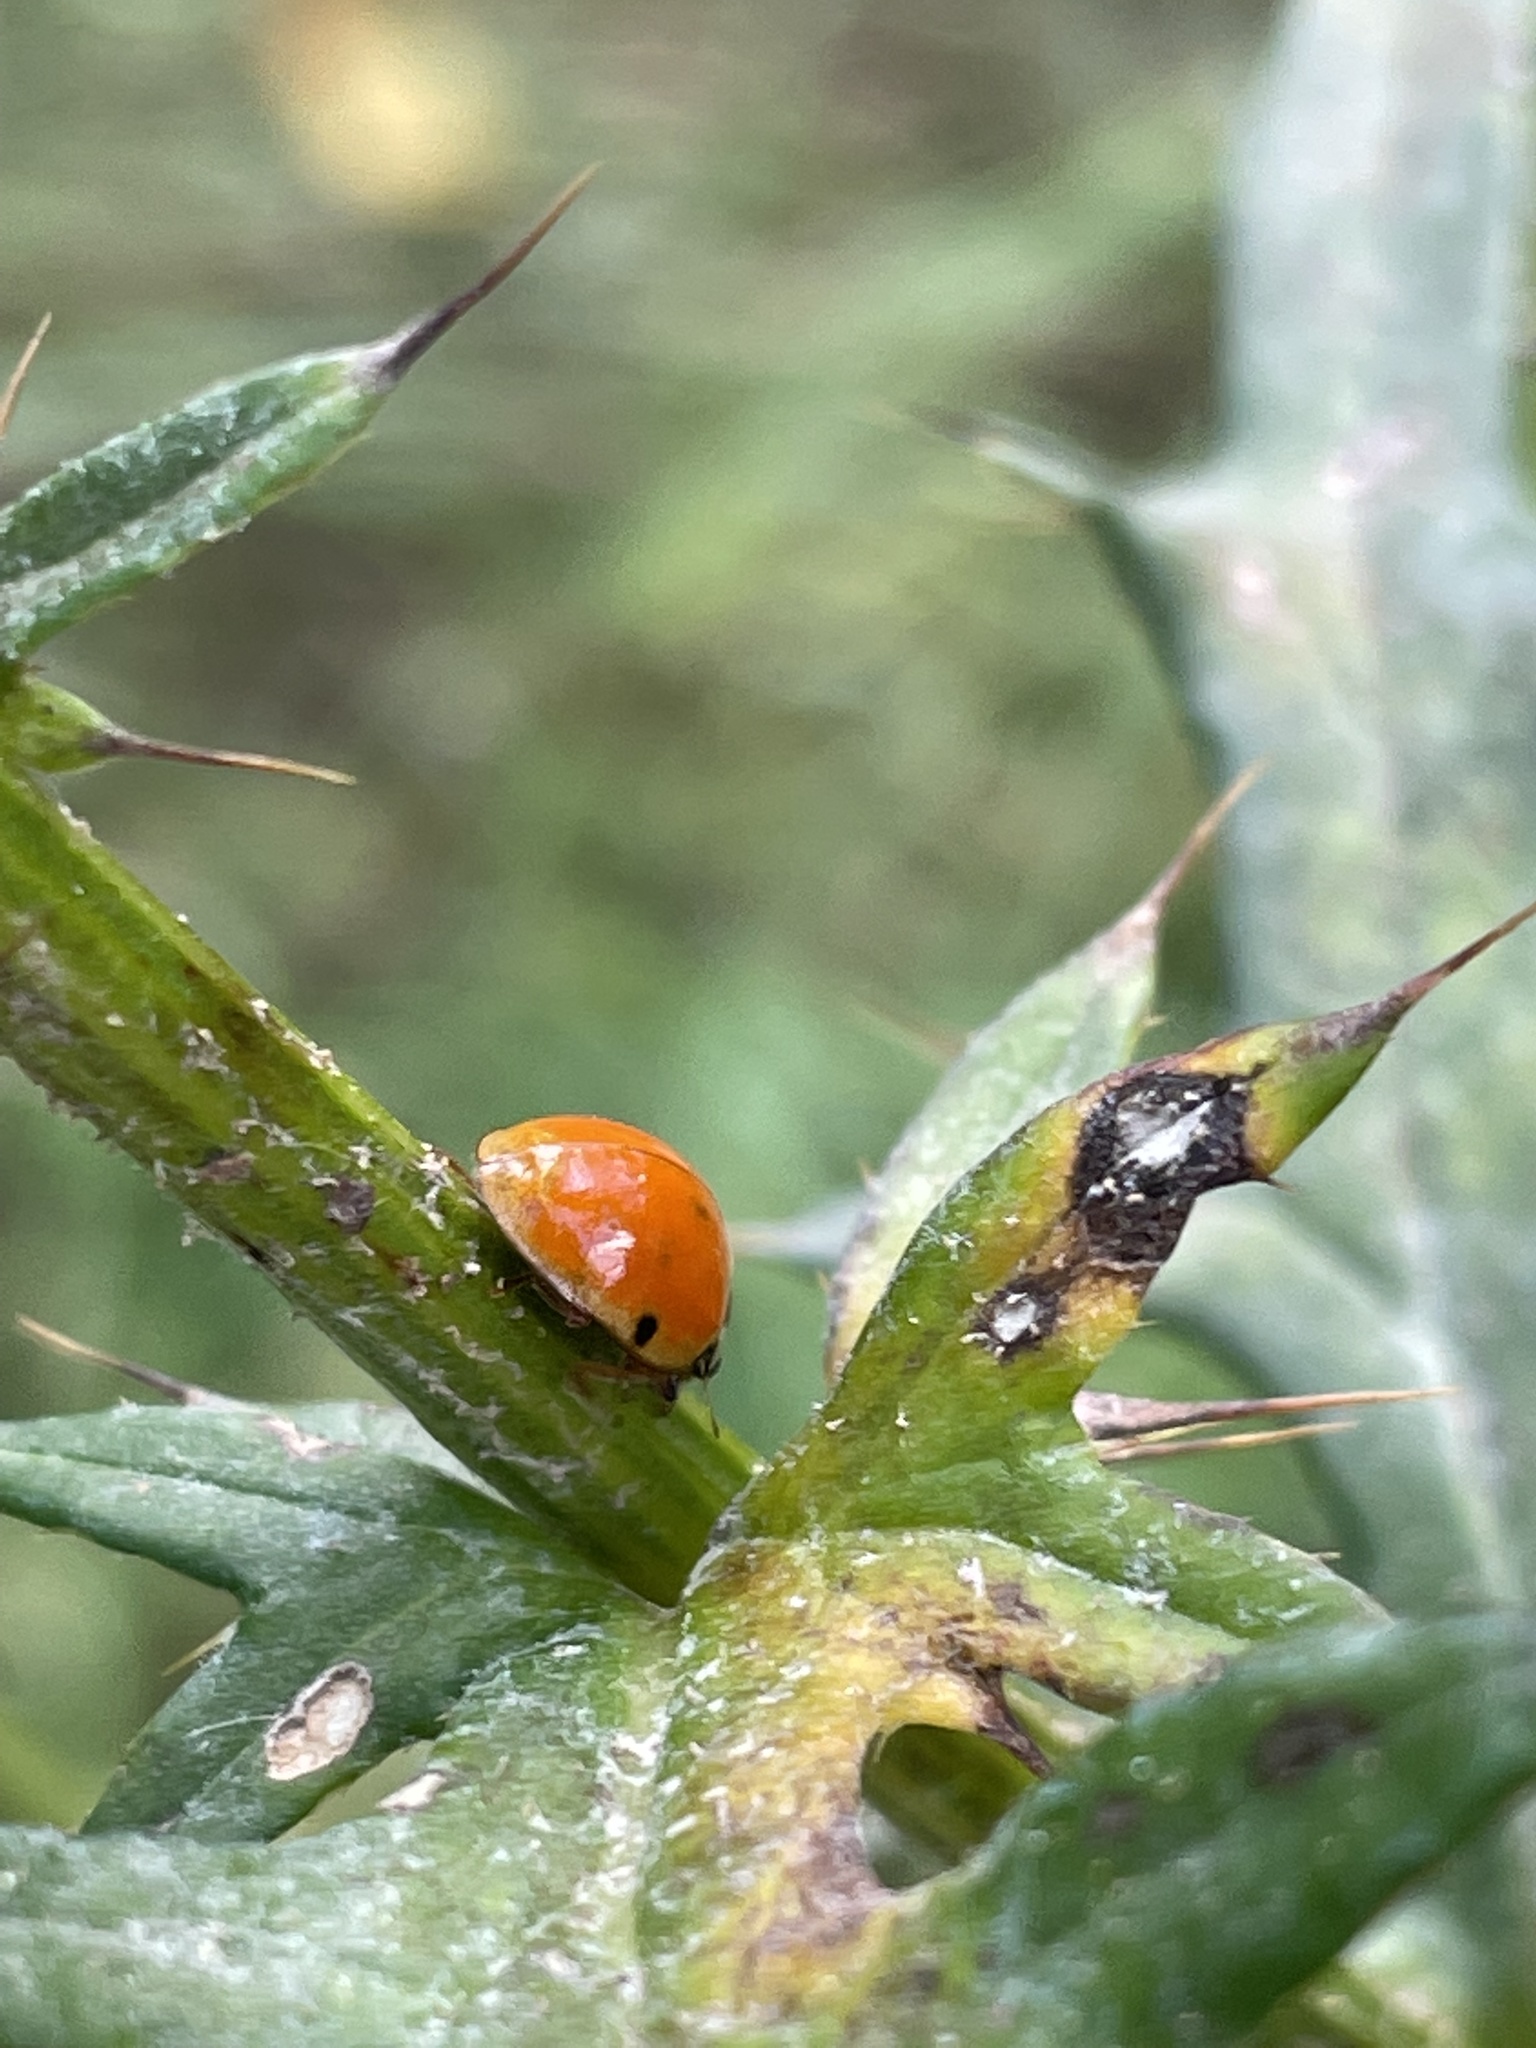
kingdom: Animalia
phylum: Arthropoda
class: Insecta
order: Coleoptera
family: Coccinellidae
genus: Harmonia
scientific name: Harmonia axyridis
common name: Harlequin ladybird
